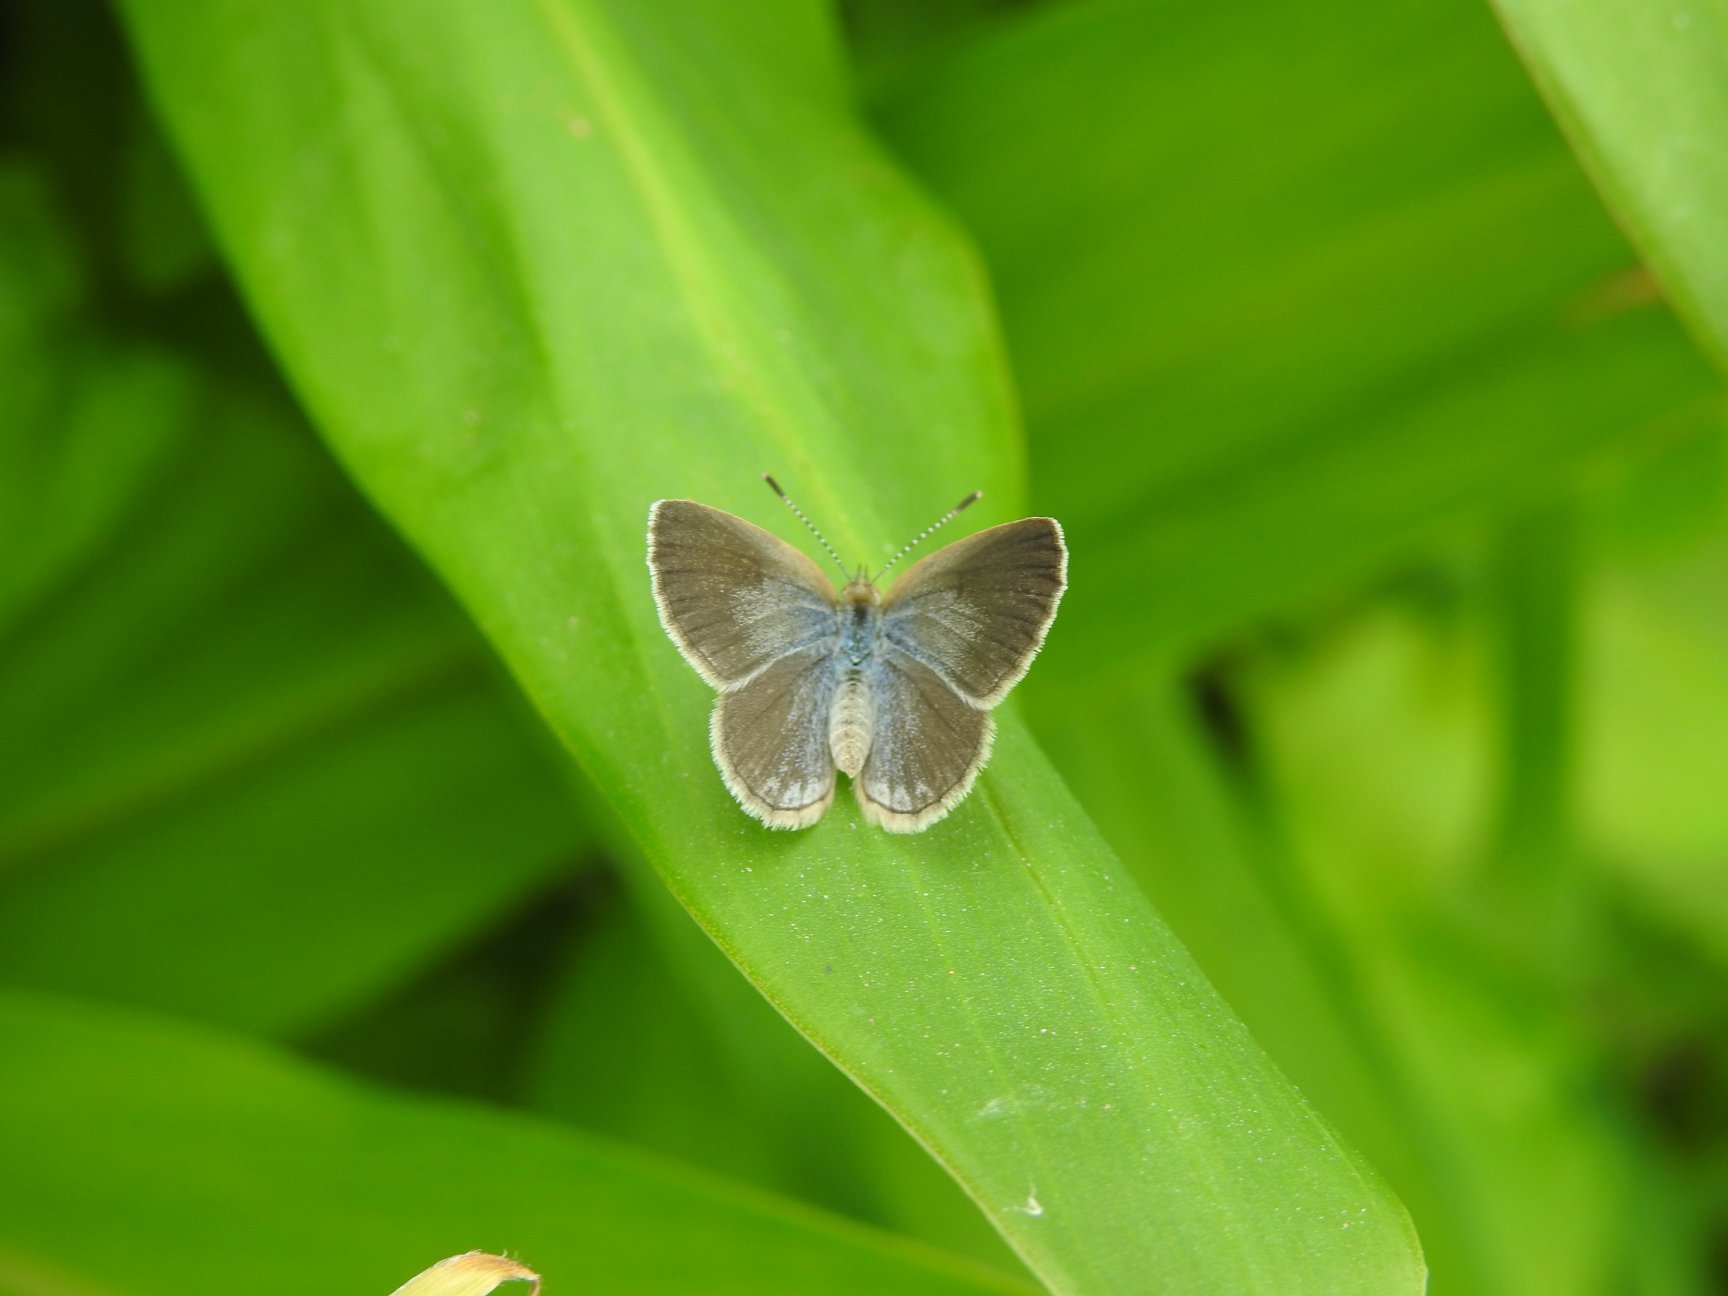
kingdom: Animalia
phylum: Arthropoda
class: Insecta
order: Lepidoptera
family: Lycaenidae
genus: Pseudozizeeria
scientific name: Pseudozizeeria maha
